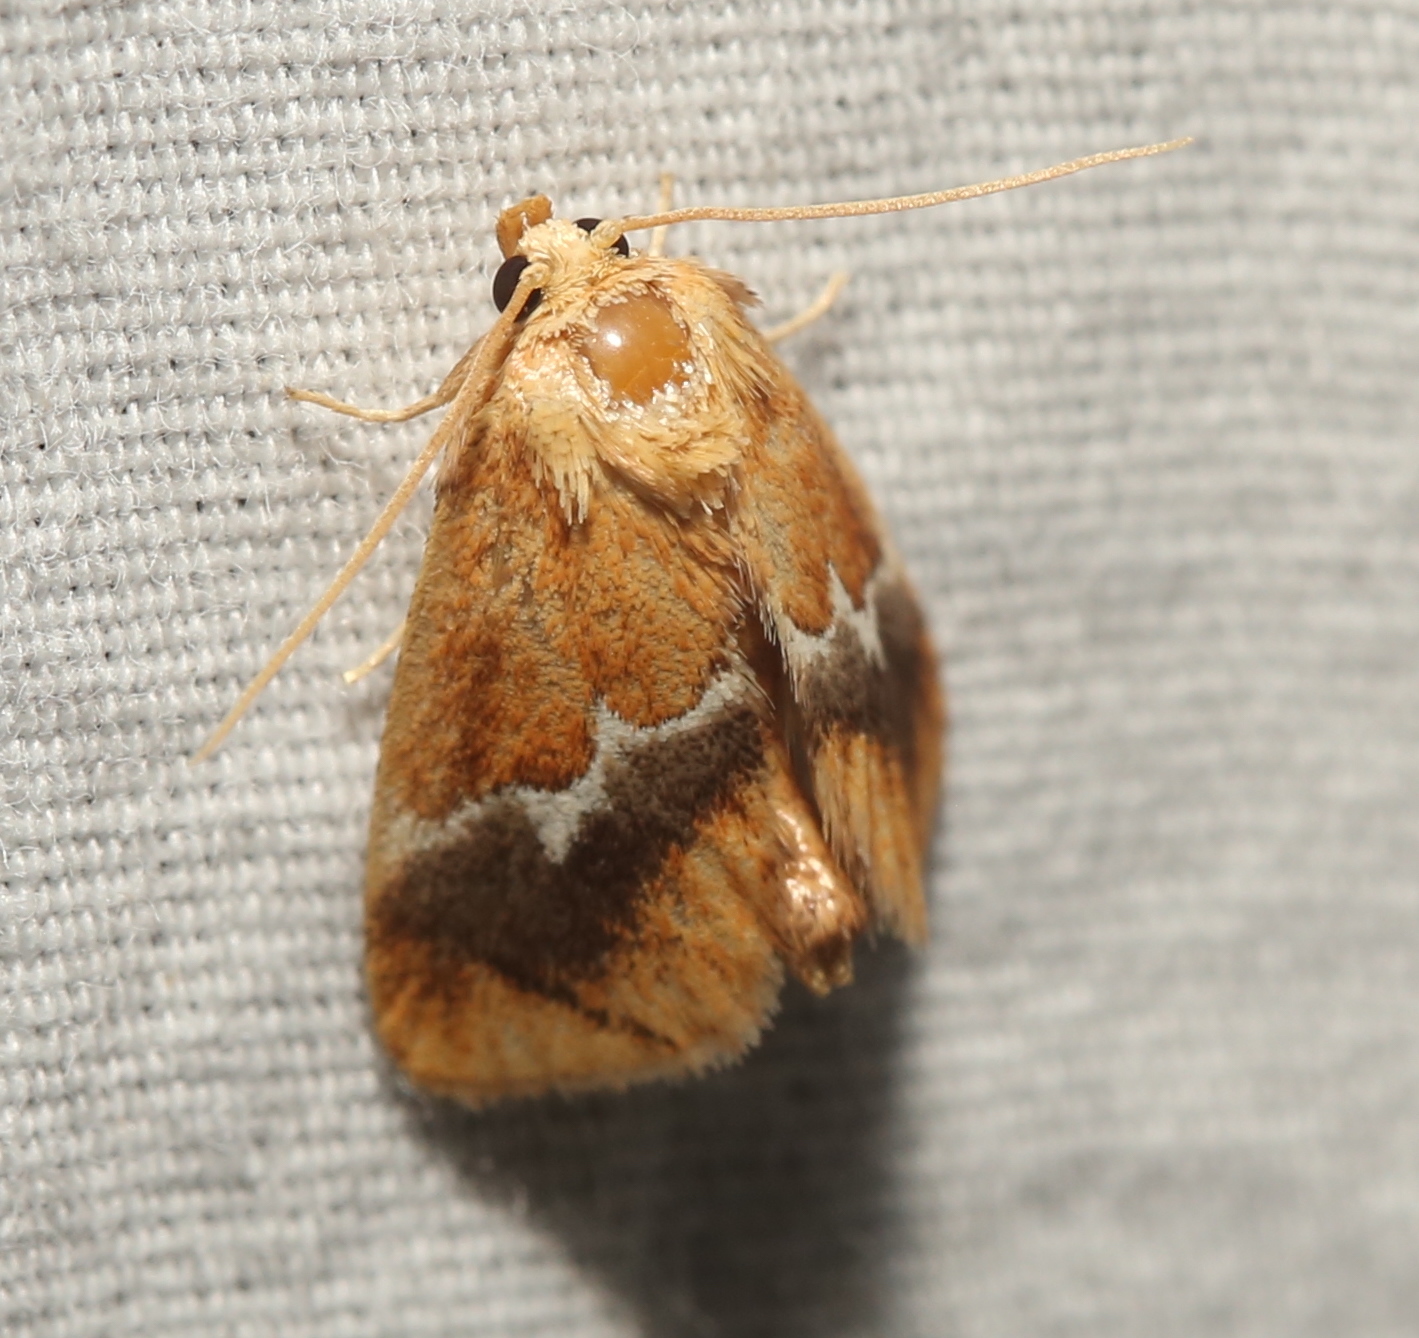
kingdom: Animalia
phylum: Arthropoda
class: Insecta
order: Lepidoptera
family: Limacodidae
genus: Lithacodes
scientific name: Lithacodes fasciola
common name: Yellow-shouldered slug moth
